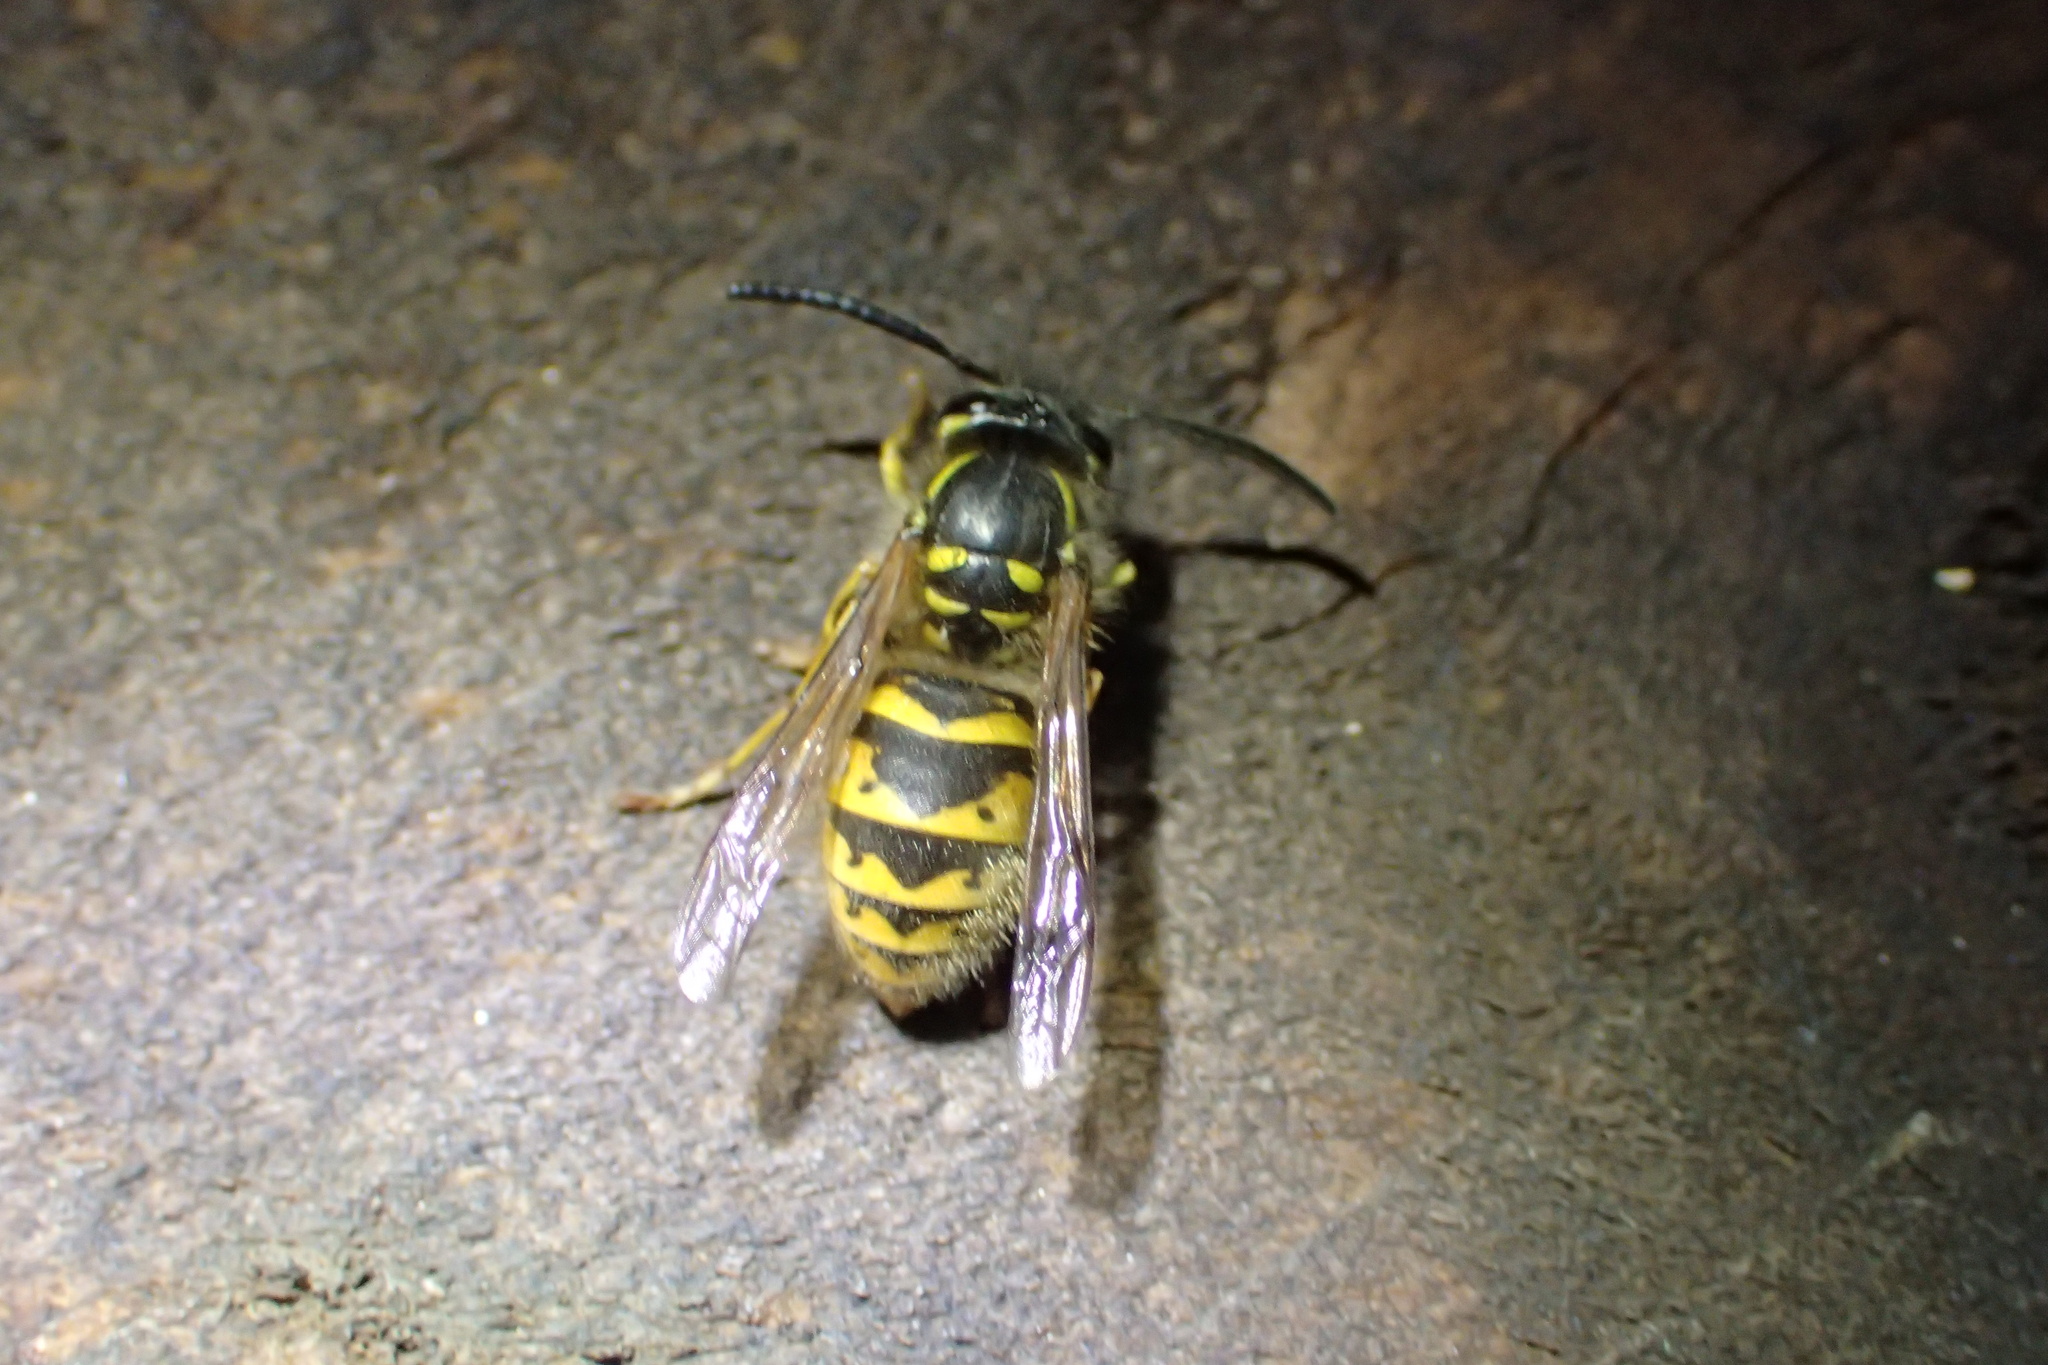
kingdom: Animalia
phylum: Arthropoda
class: Insecta
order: Hymenoptera
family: Vespidae
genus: Vespula
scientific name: Vespula vulgaris
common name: Common wasp
